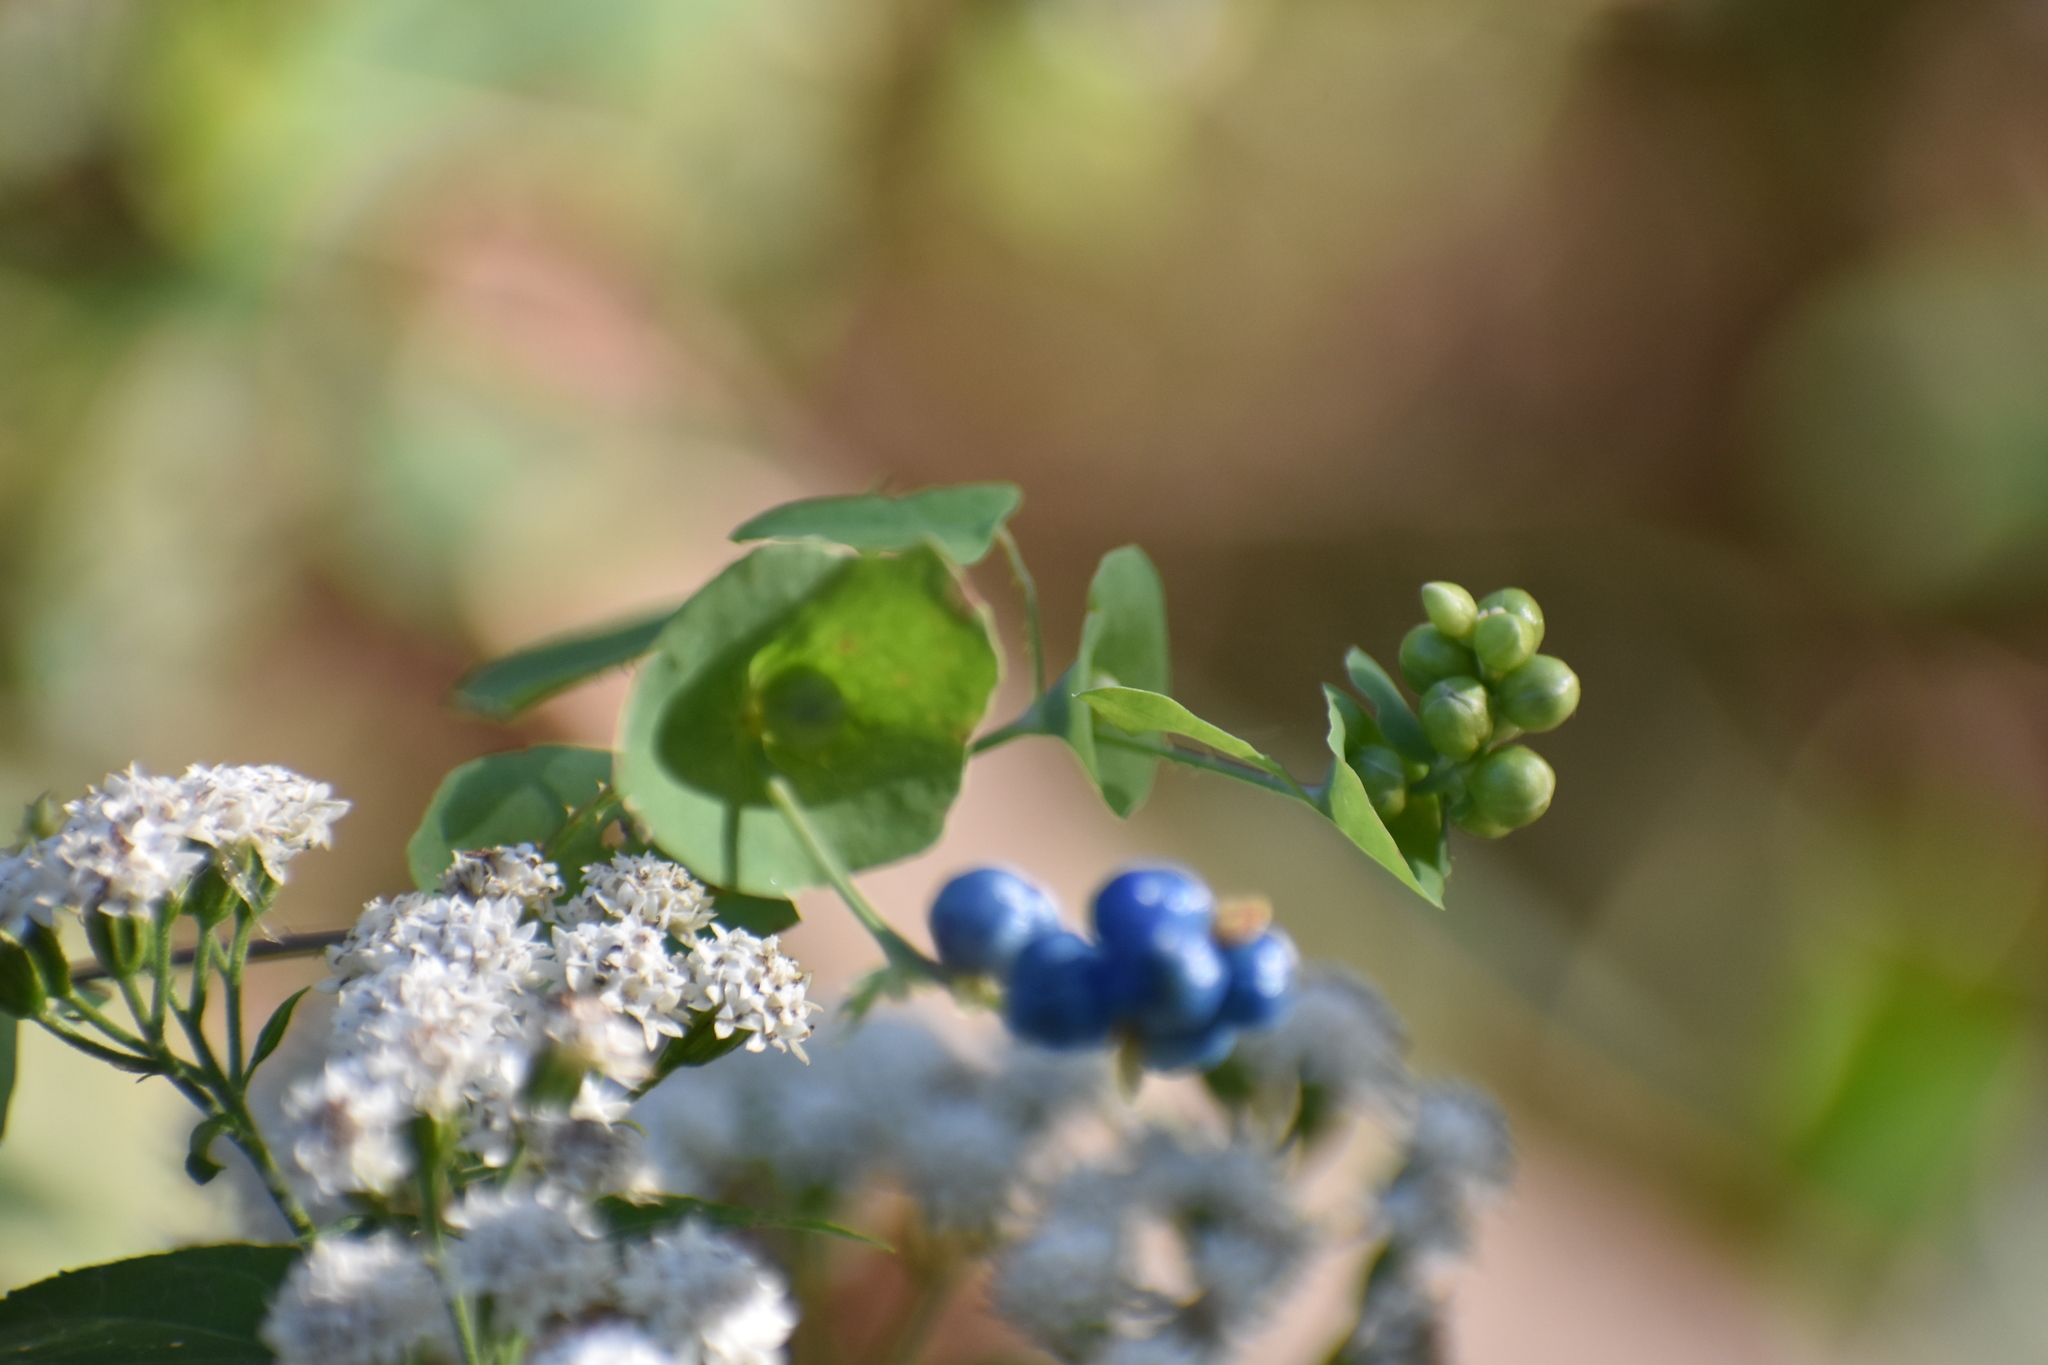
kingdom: Plantae
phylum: Tracheophyta
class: Magnoliopsida
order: Caryophyllales
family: Polygonaceae
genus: Persicaria
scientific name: Persicaria perfoliata
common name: Asiatic tearthumb
